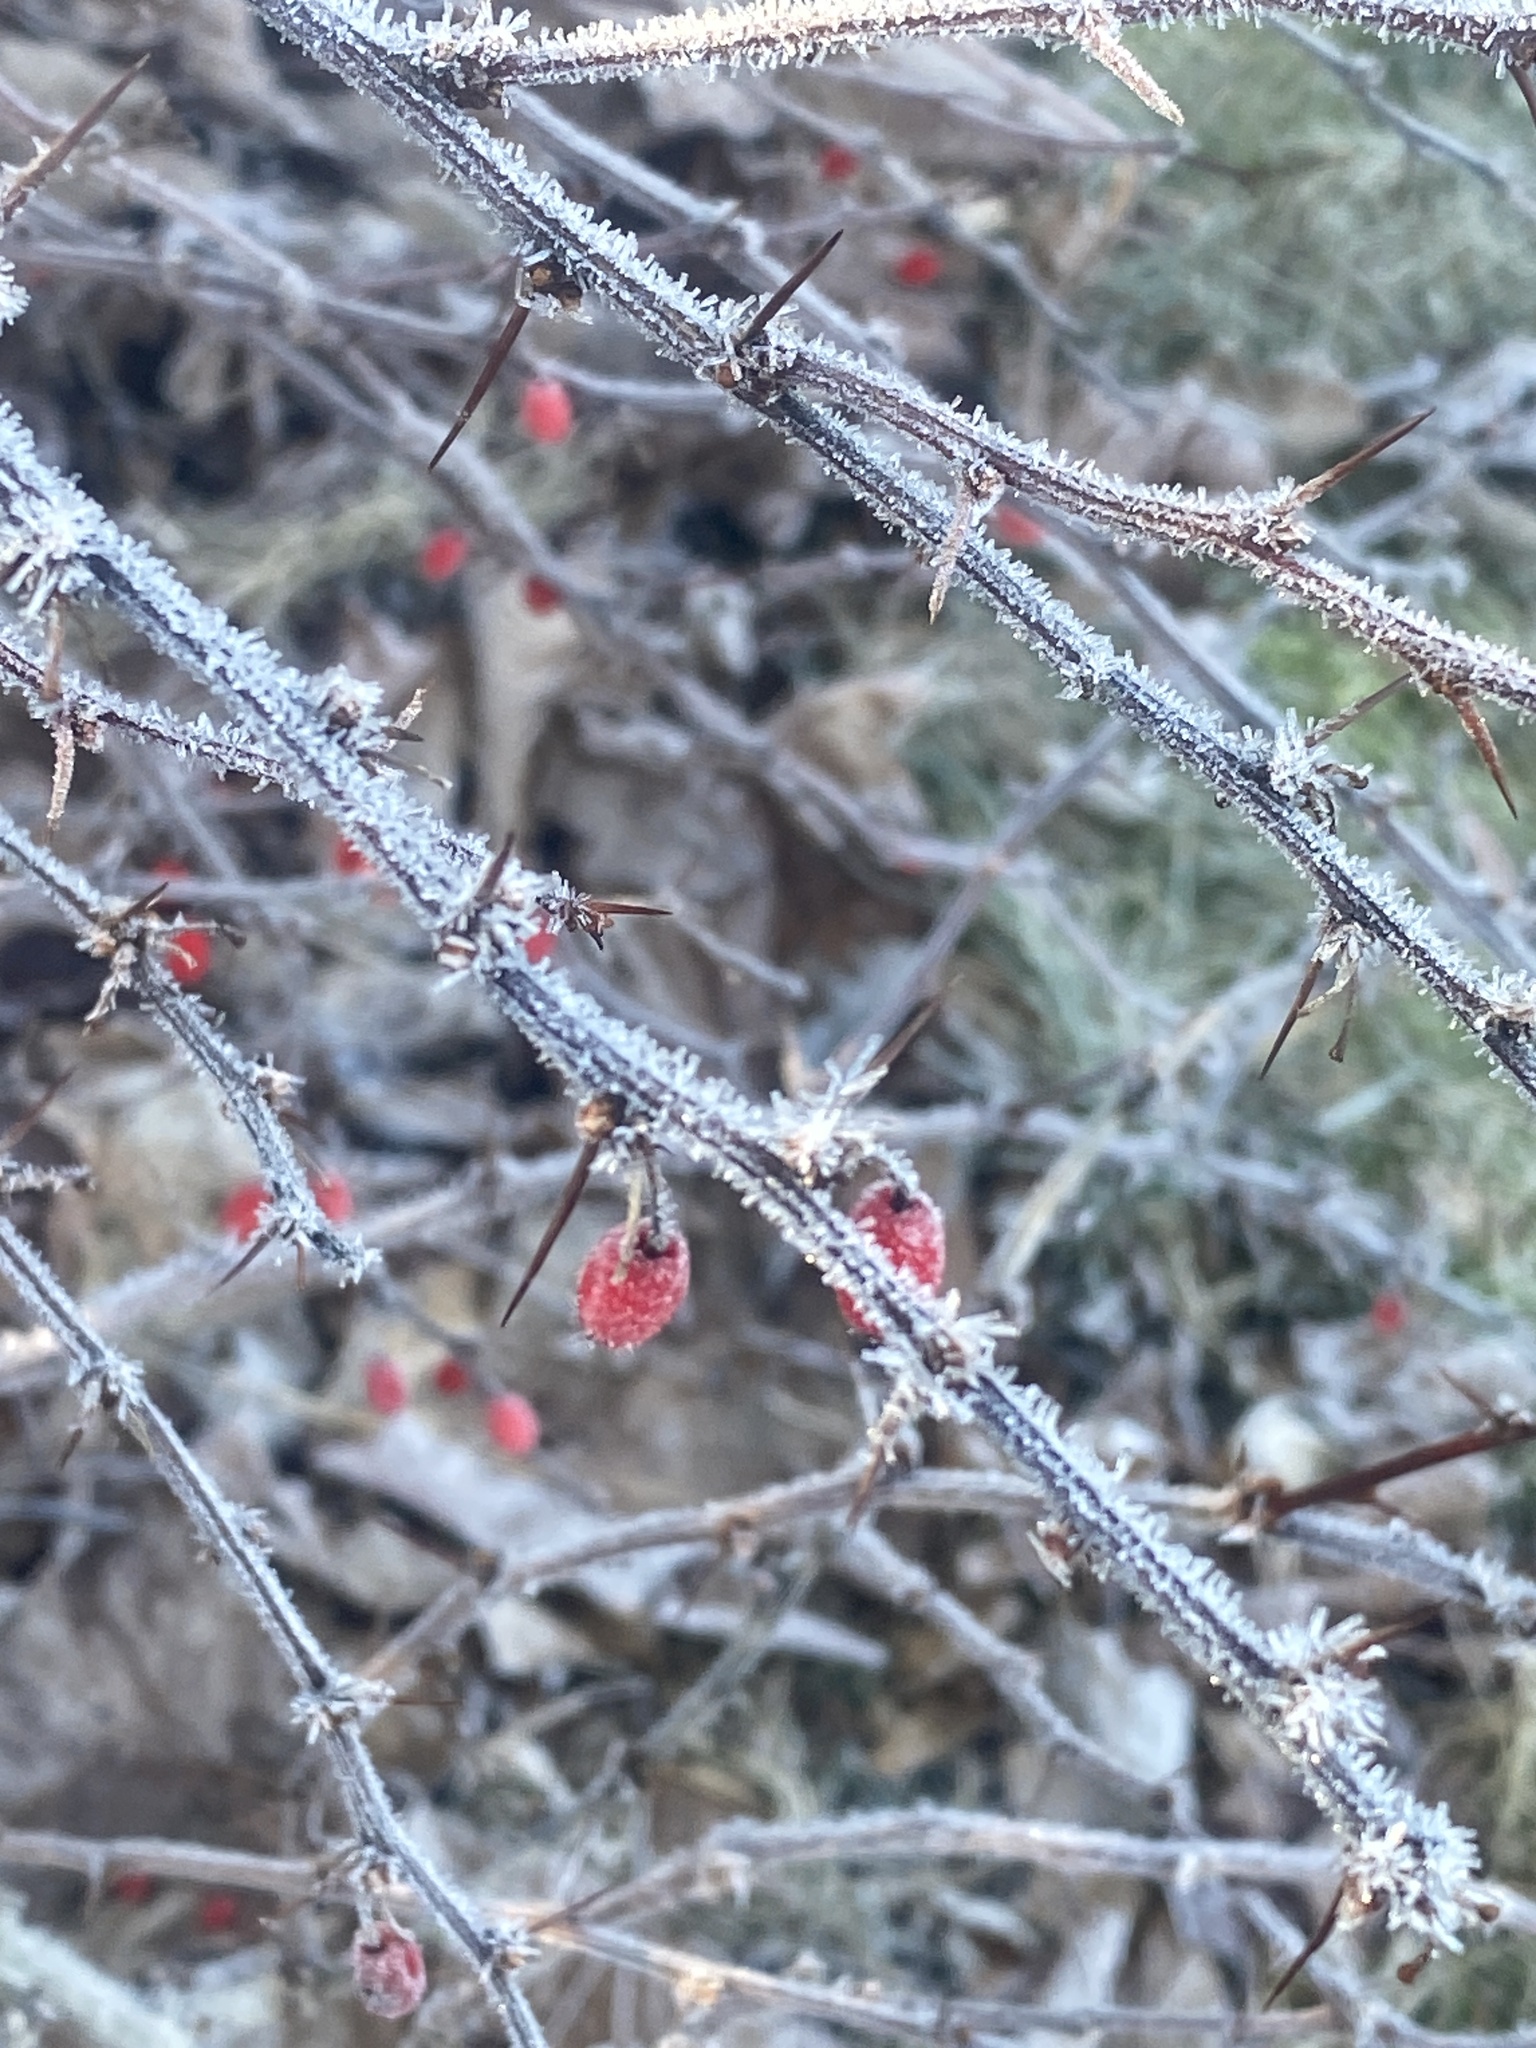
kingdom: Plantae
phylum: Tracheophyta
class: Magnoliopsida
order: Ranunculales
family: Berberidaceae
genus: Berberis
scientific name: Berberis thunbergii
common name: Japanese barberry
